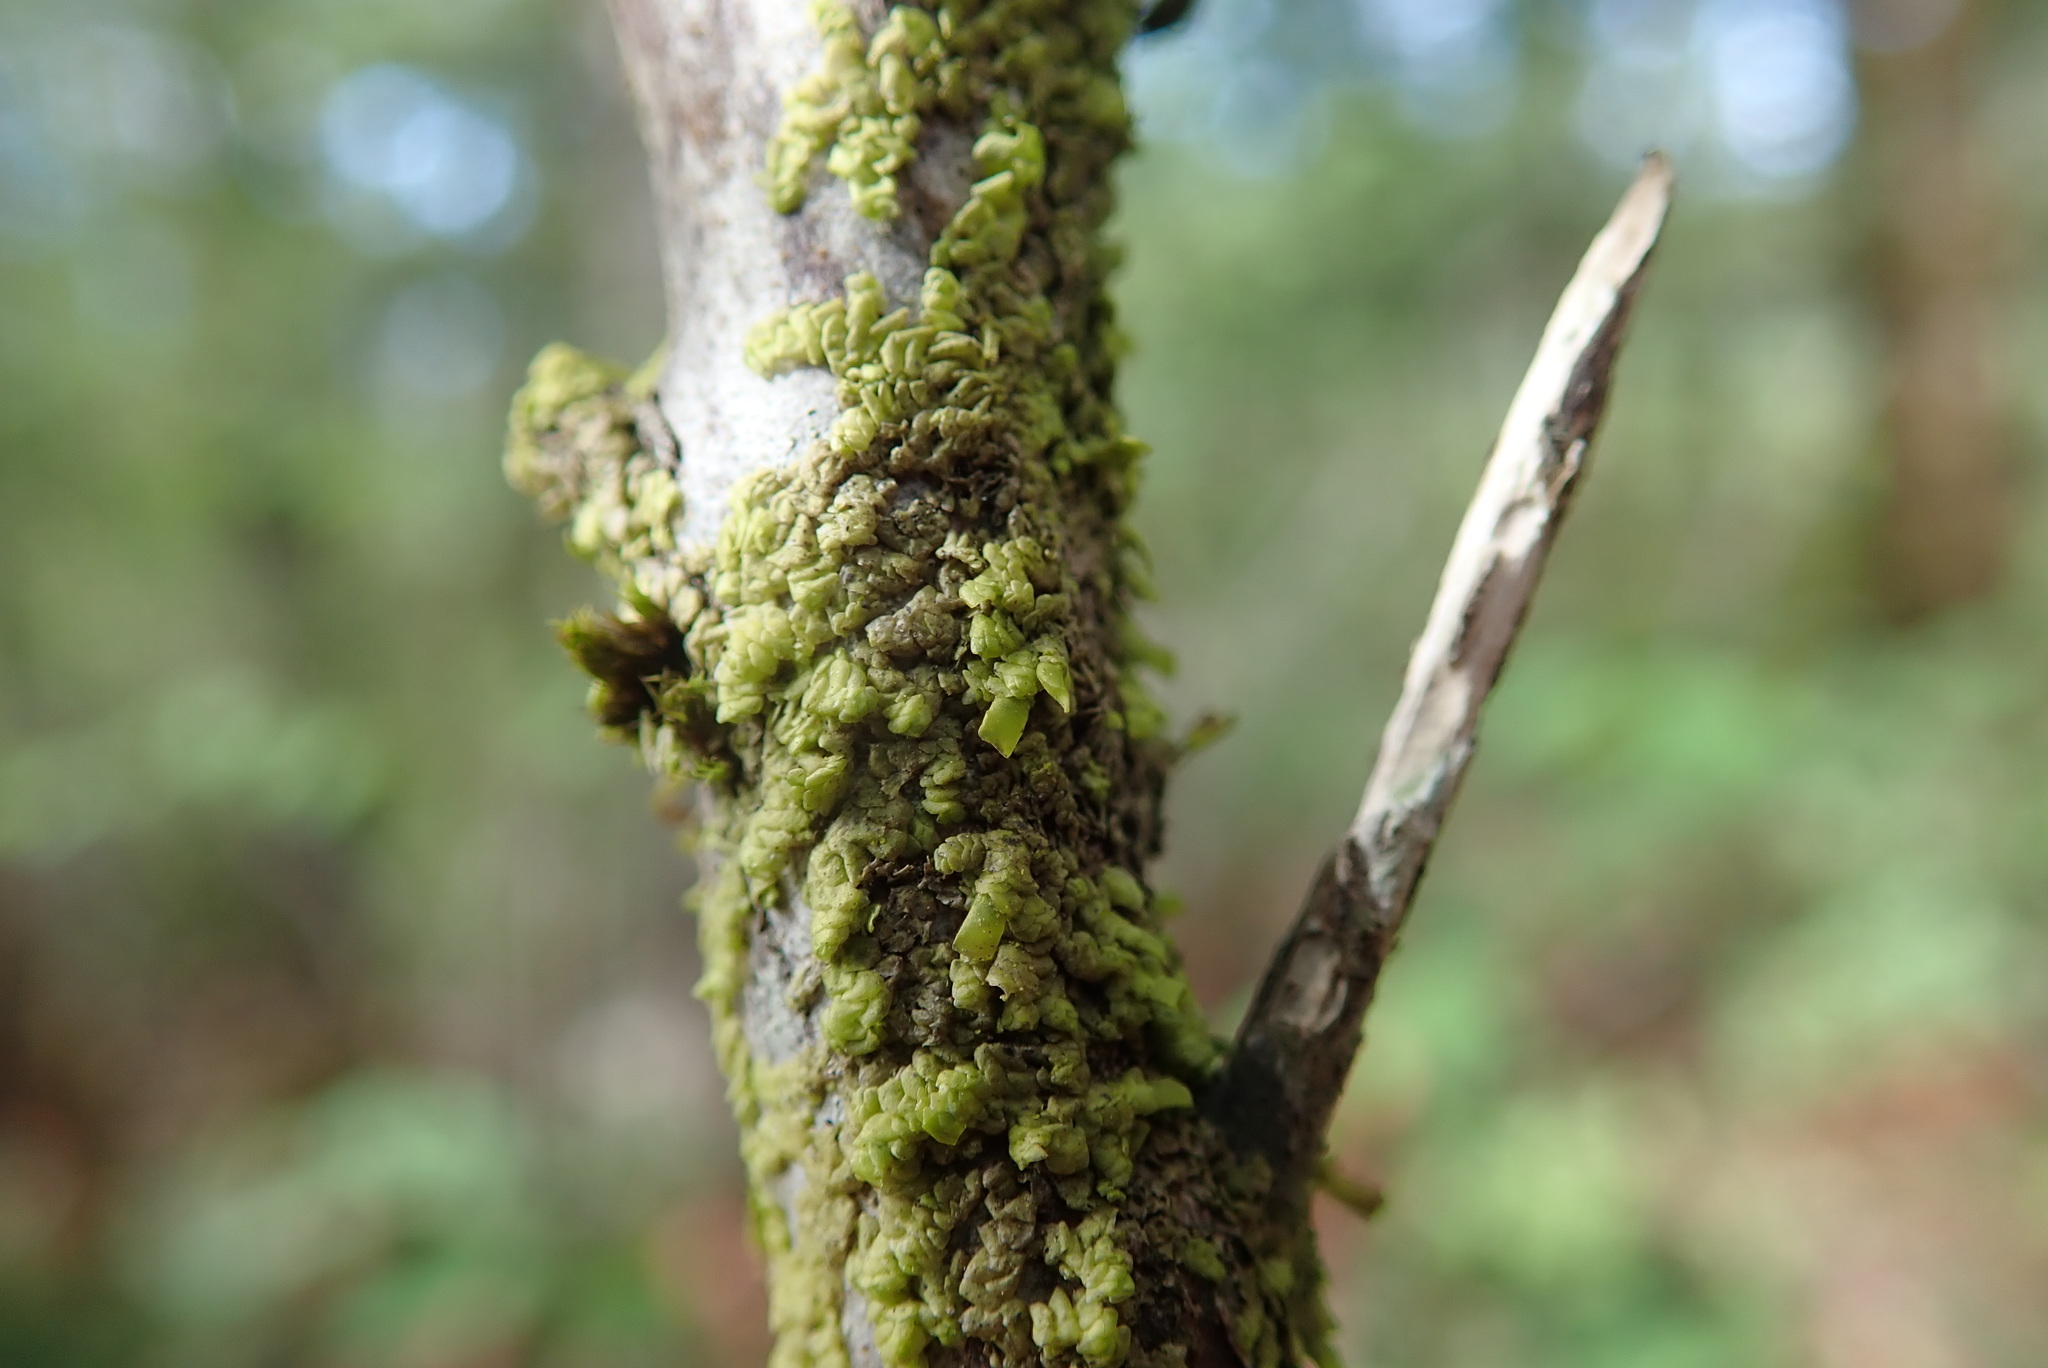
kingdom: Plantae
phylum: Marchantiophyta
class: Jungermanniopsida
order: Porellales
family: Radulaceae
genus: Radula
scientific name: Radula complanata
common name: Flat-leaved scalewort
